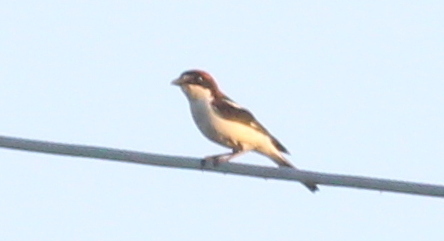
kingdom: Animalia
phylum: Chordata
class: Aves
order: Passeriformes
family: Laniidae
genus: Lanius
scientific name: Lanius senator
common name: Woodchat shrike
